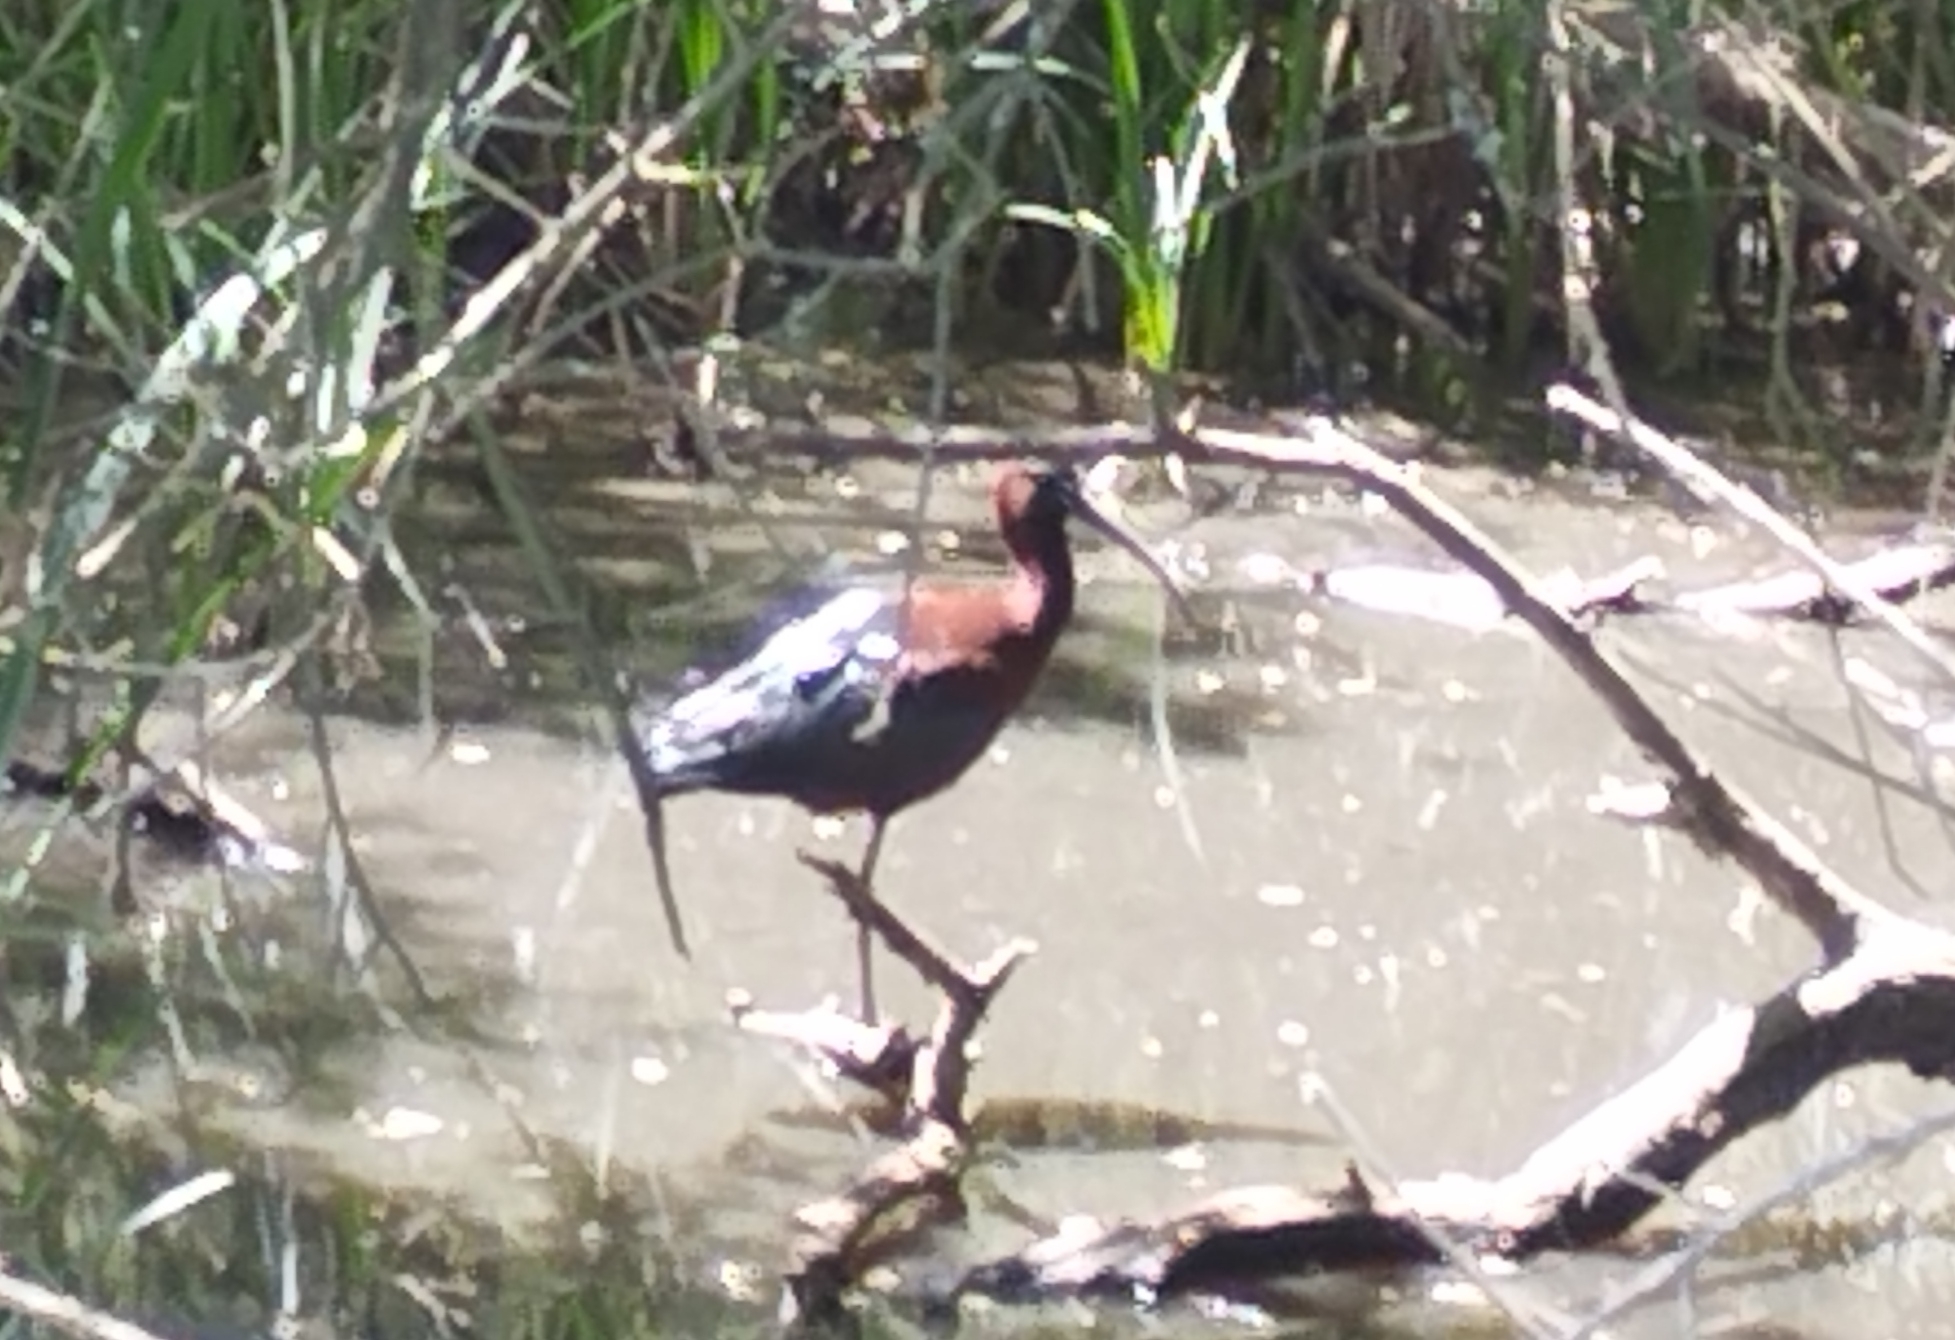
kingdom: Animalia
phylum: Chordata
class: Aves
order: Pelecaniformes
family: Threskiornithidae
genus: Plegadis
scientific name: Plegadis falcinellus
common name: Glossy ibis
